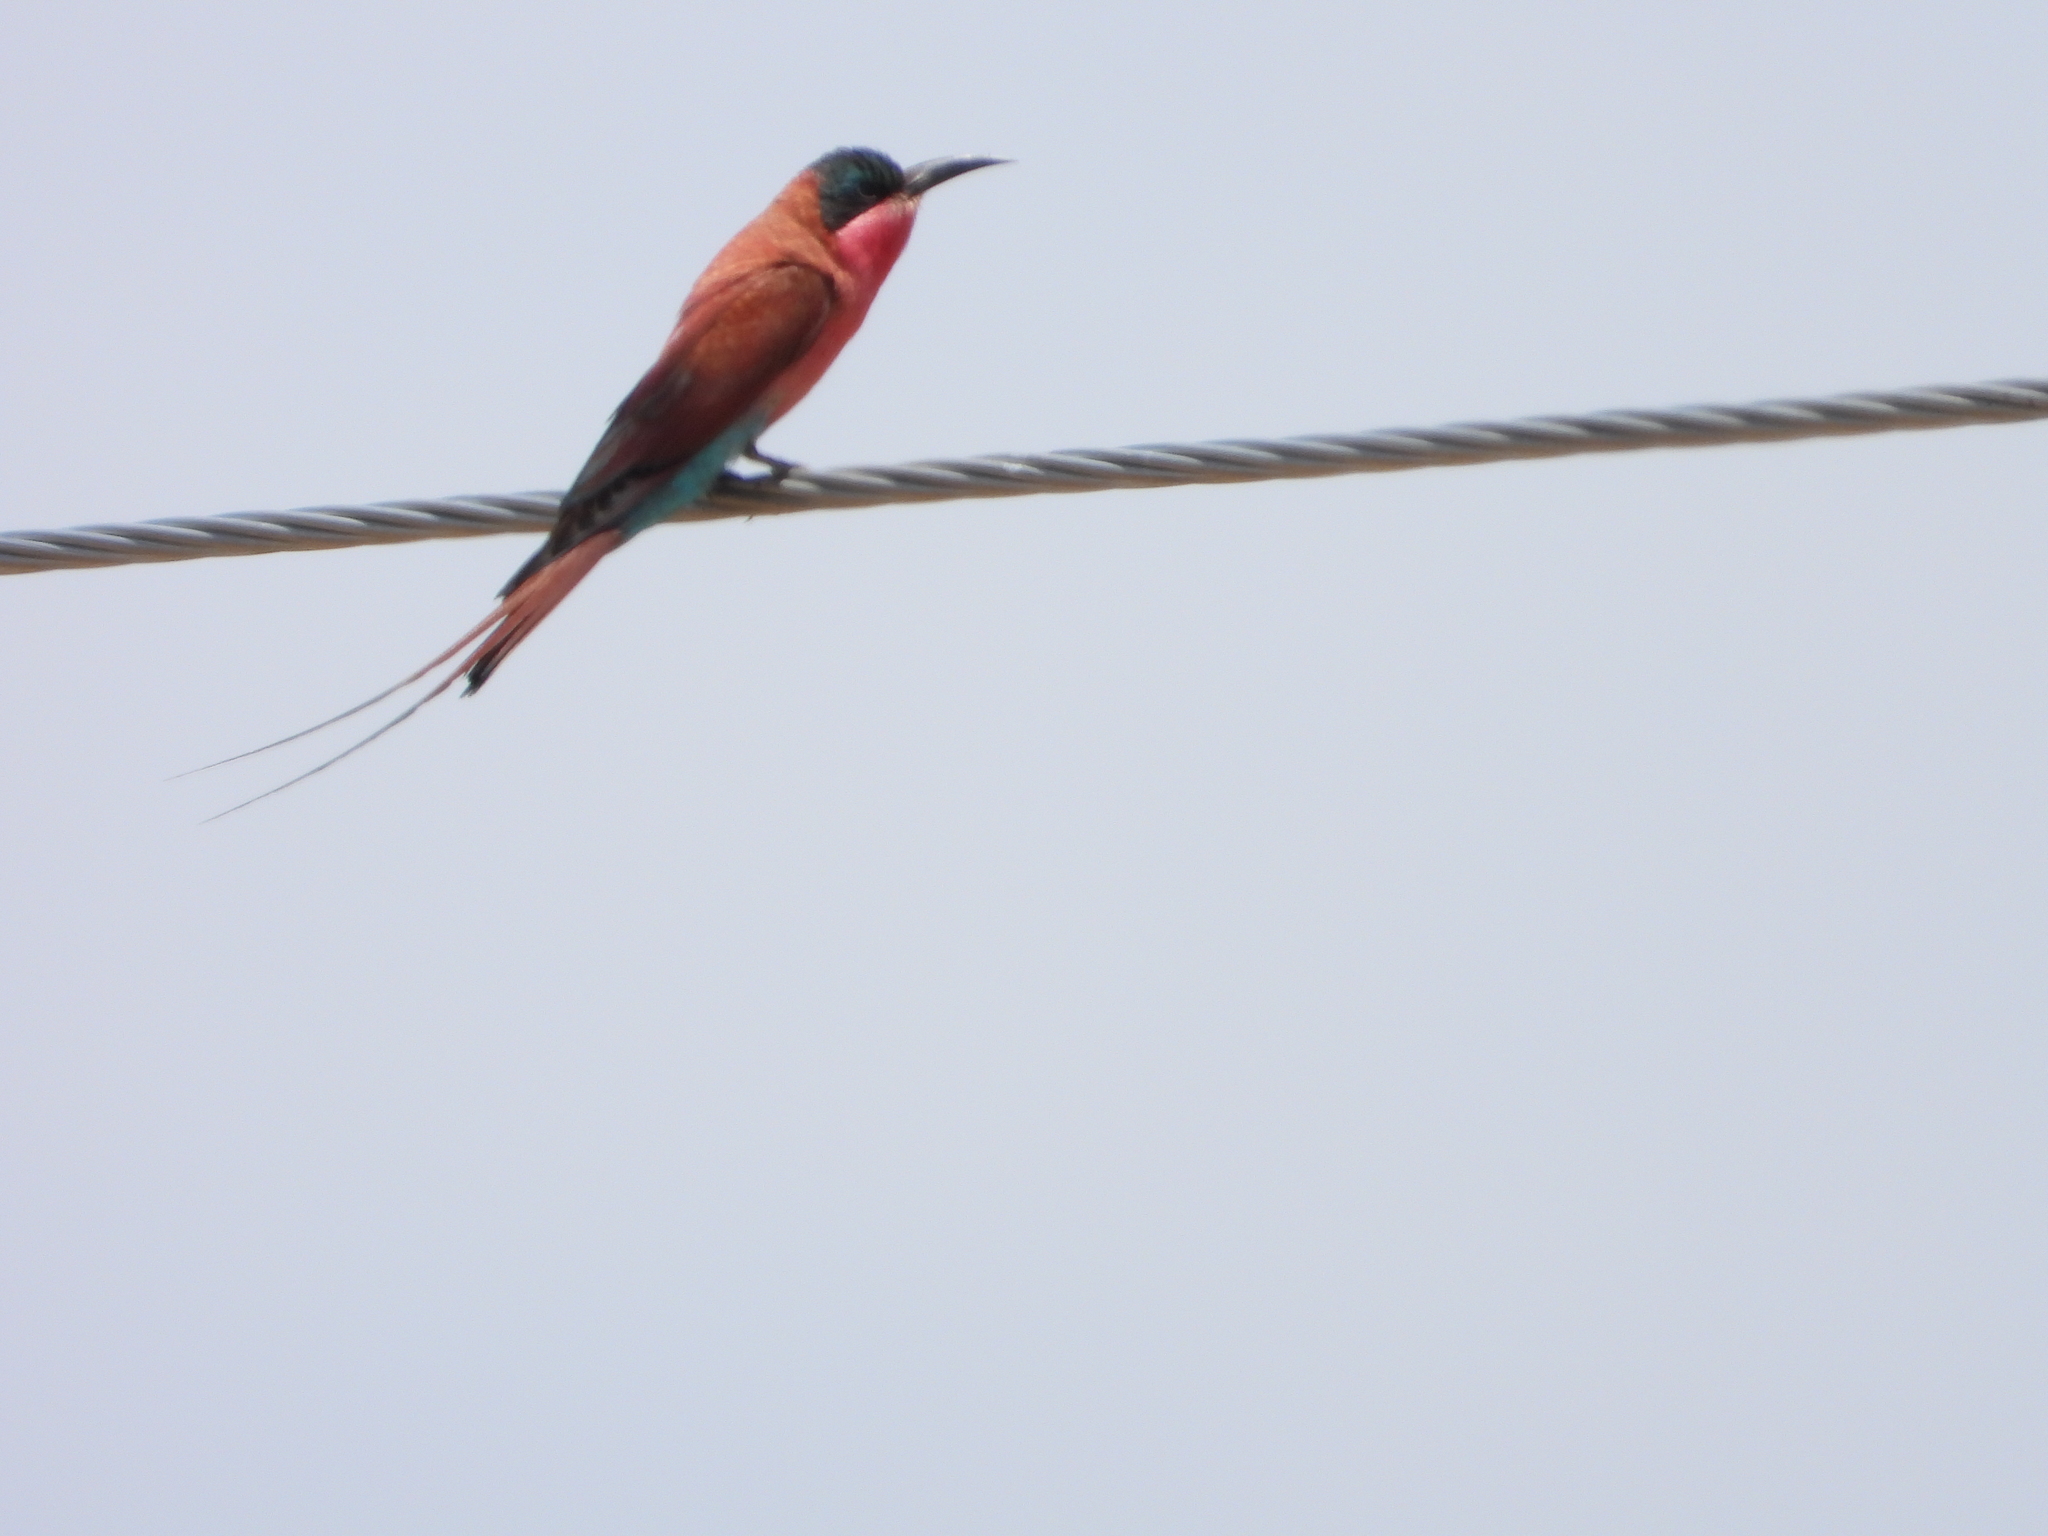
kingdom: Animalia
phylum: Chordata
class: Aves
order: Coraciiformes
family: Meropidae
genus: Merops
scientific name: Merops nubicoides
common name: Southern carmine bee-eater
